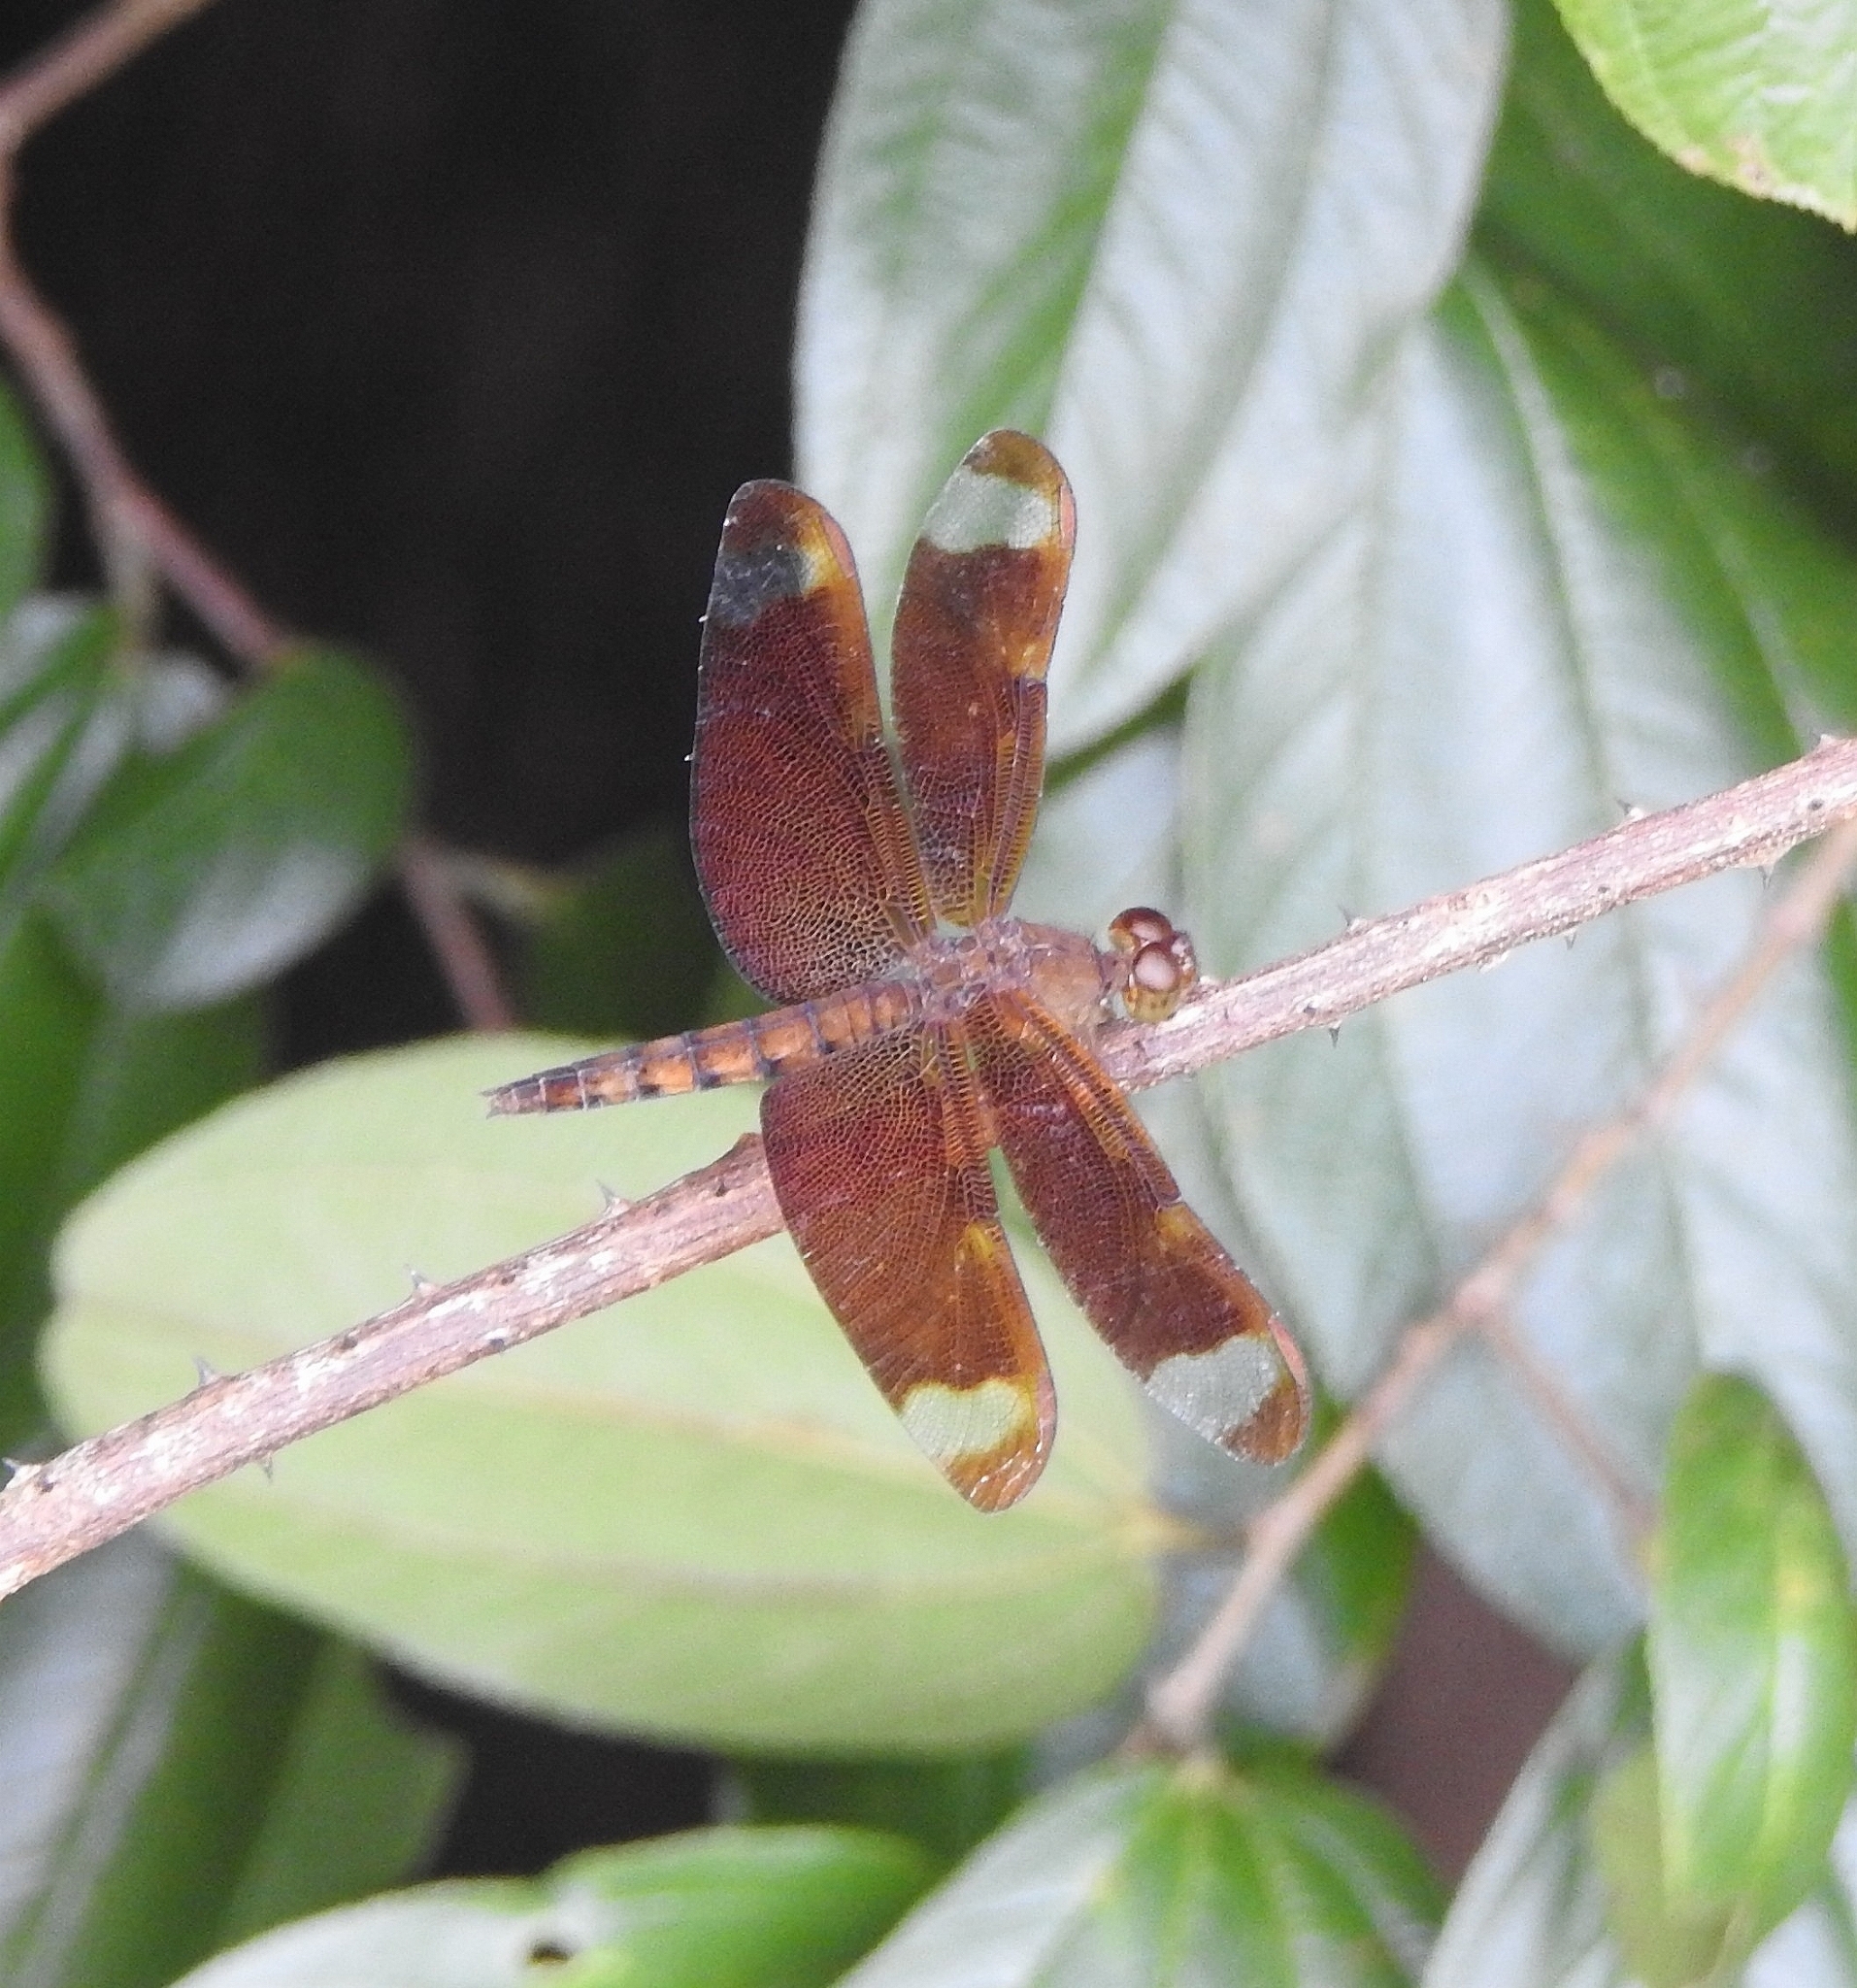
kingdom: Animalia
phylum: Arthropoda
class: Insecta
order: Odonata
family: Libellulidae
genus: Neurothemis
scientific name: Neurothemis fulvia
